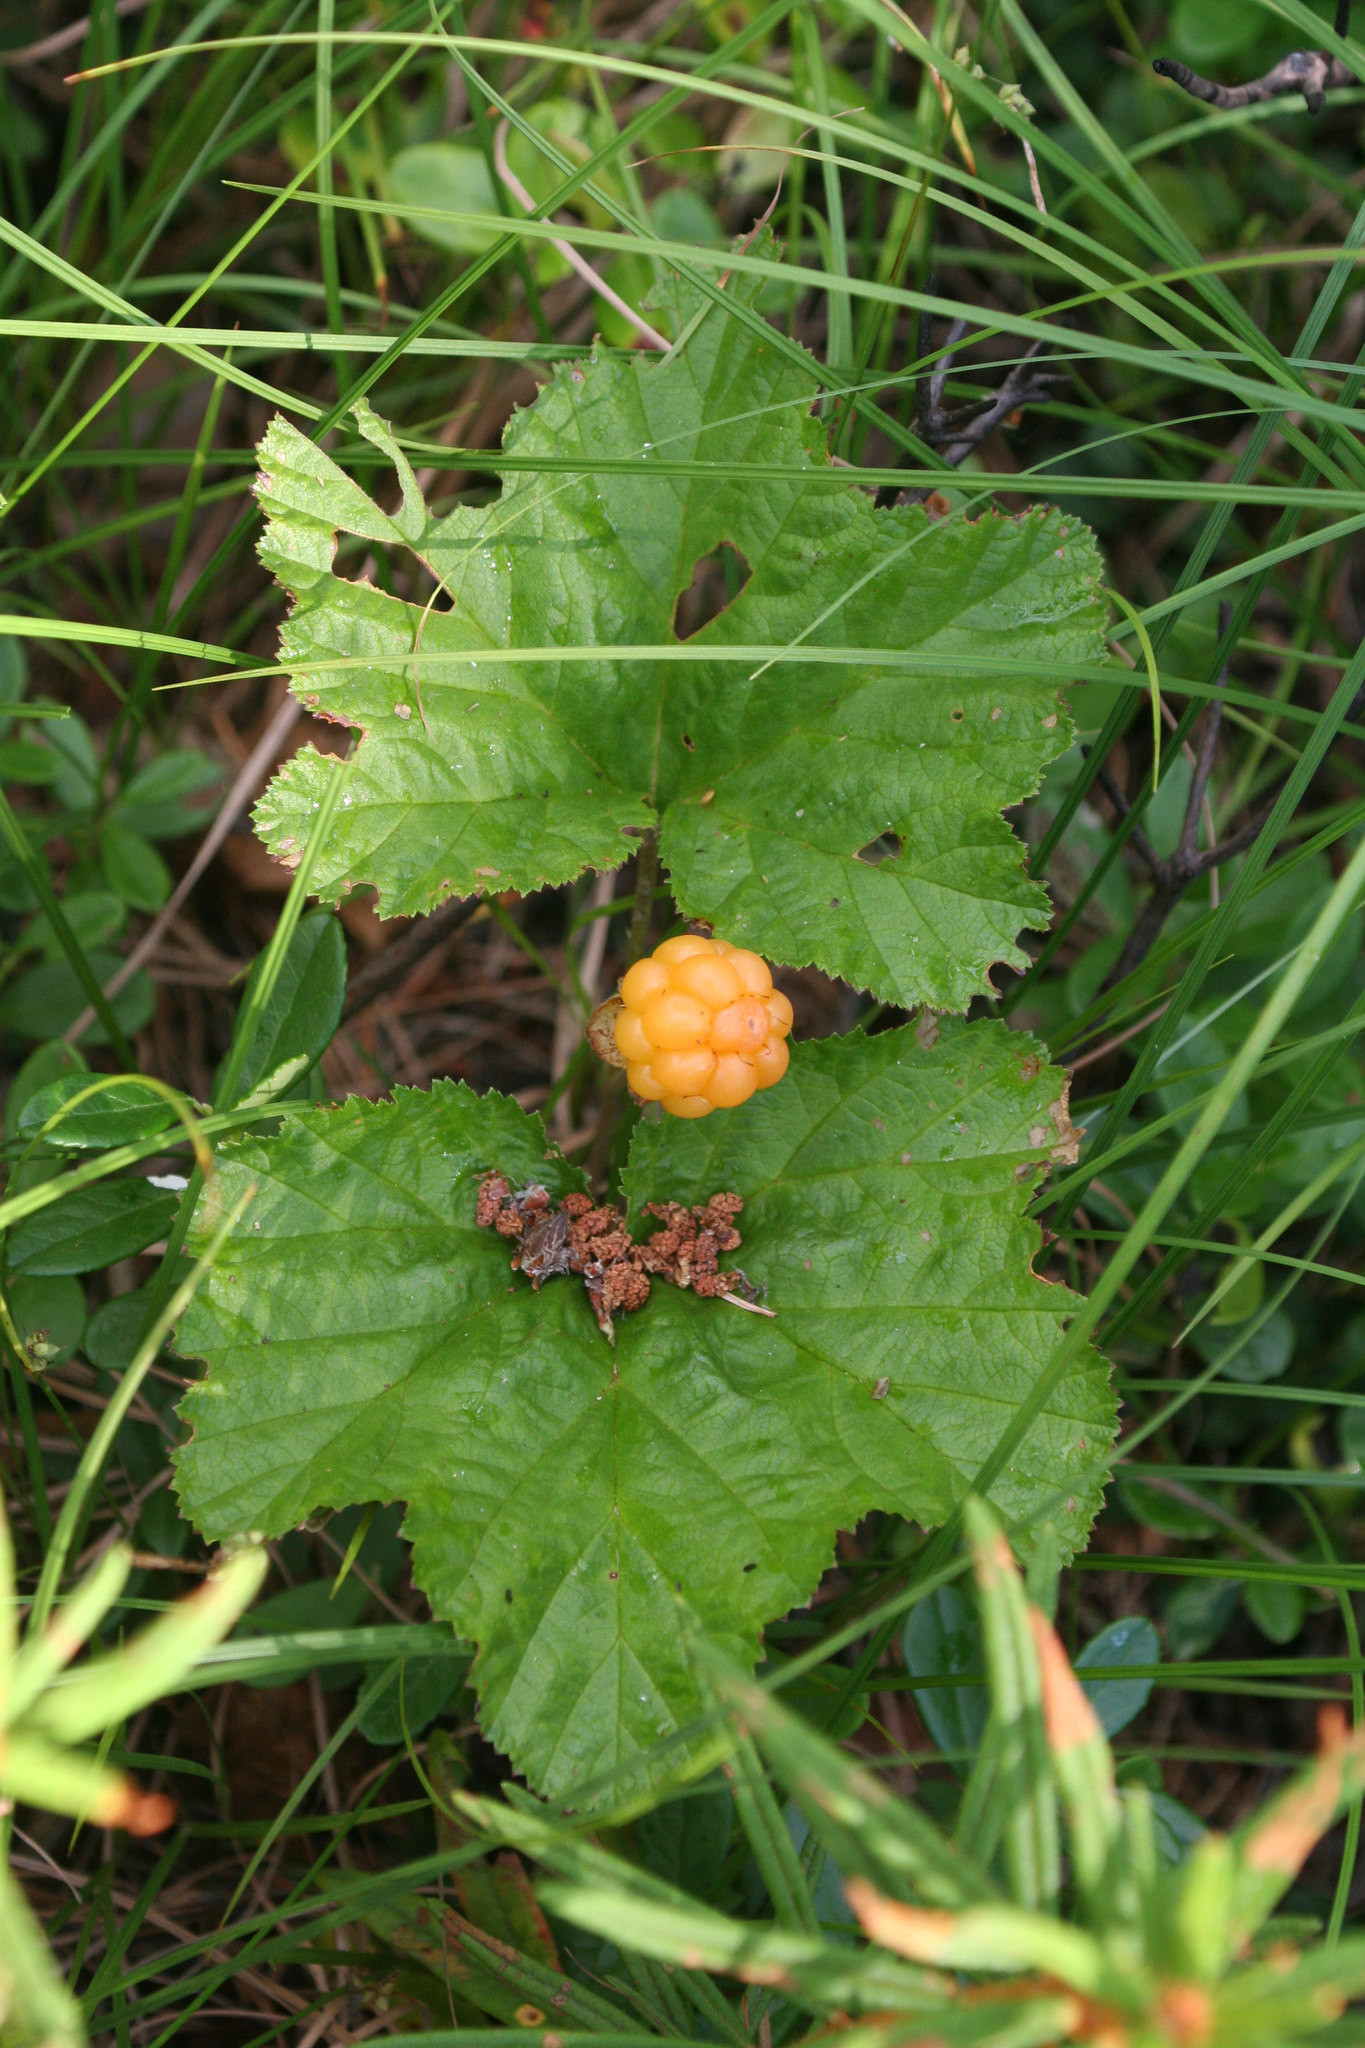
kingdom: Plantae
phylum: Tracheophyta
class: Magnoliopsida
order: Rosales
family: Rosaceae
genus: Rubus
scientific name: Rubus chamaemorus
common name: Cloudberry
